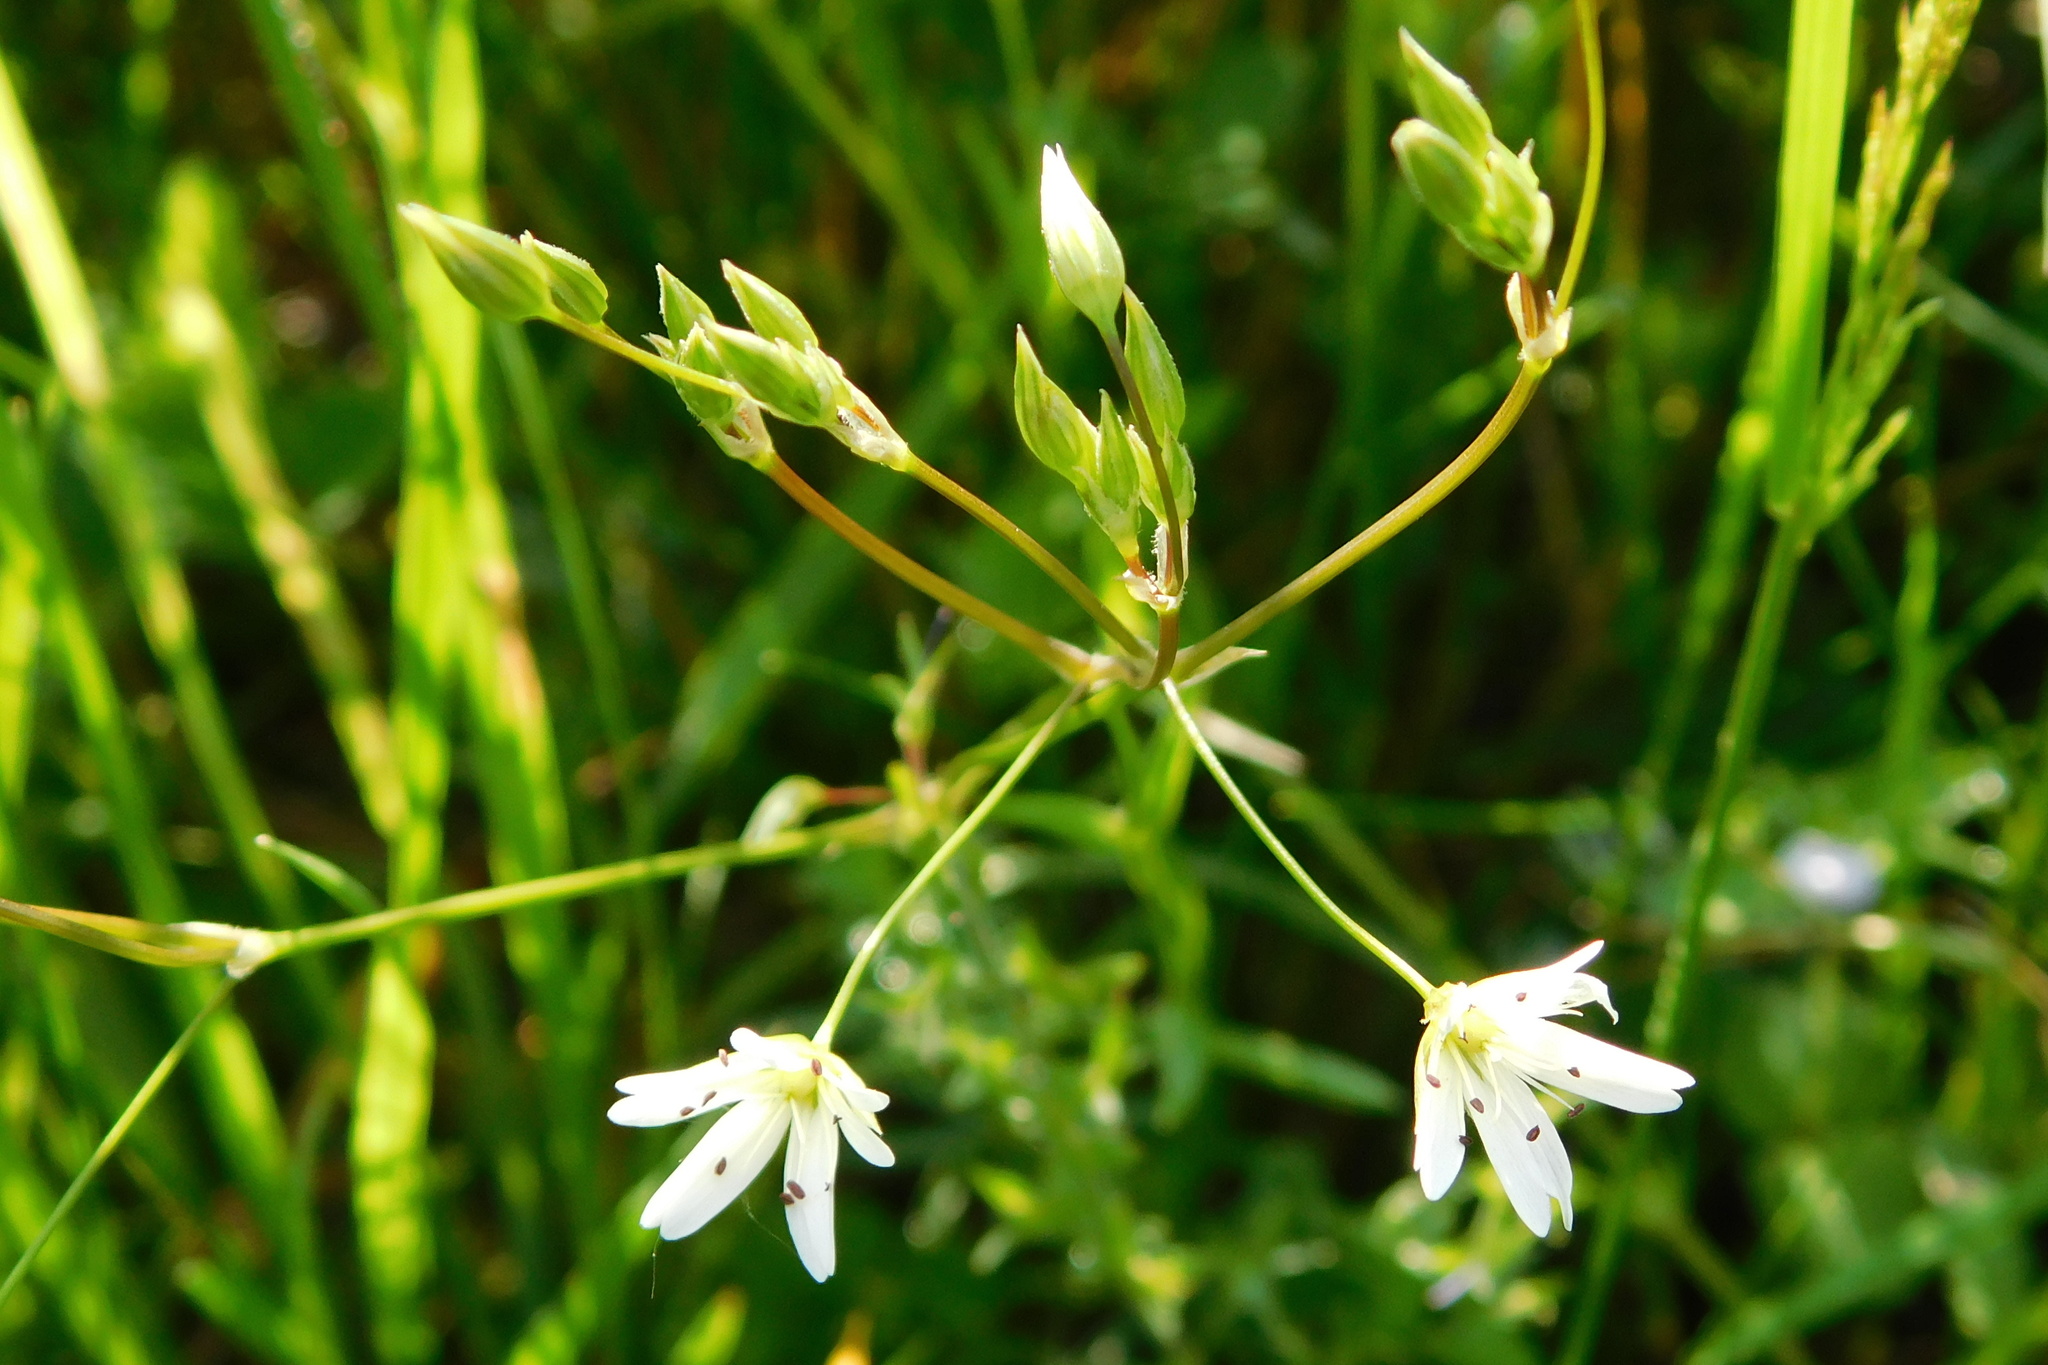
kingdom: Plantae
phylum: Tracheophyta
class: Magnoliopsida
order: Caryophyllales
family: Caryophyllaceae
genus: Stellaria
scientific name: Stellaria graminea
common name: Grass-like starwort
